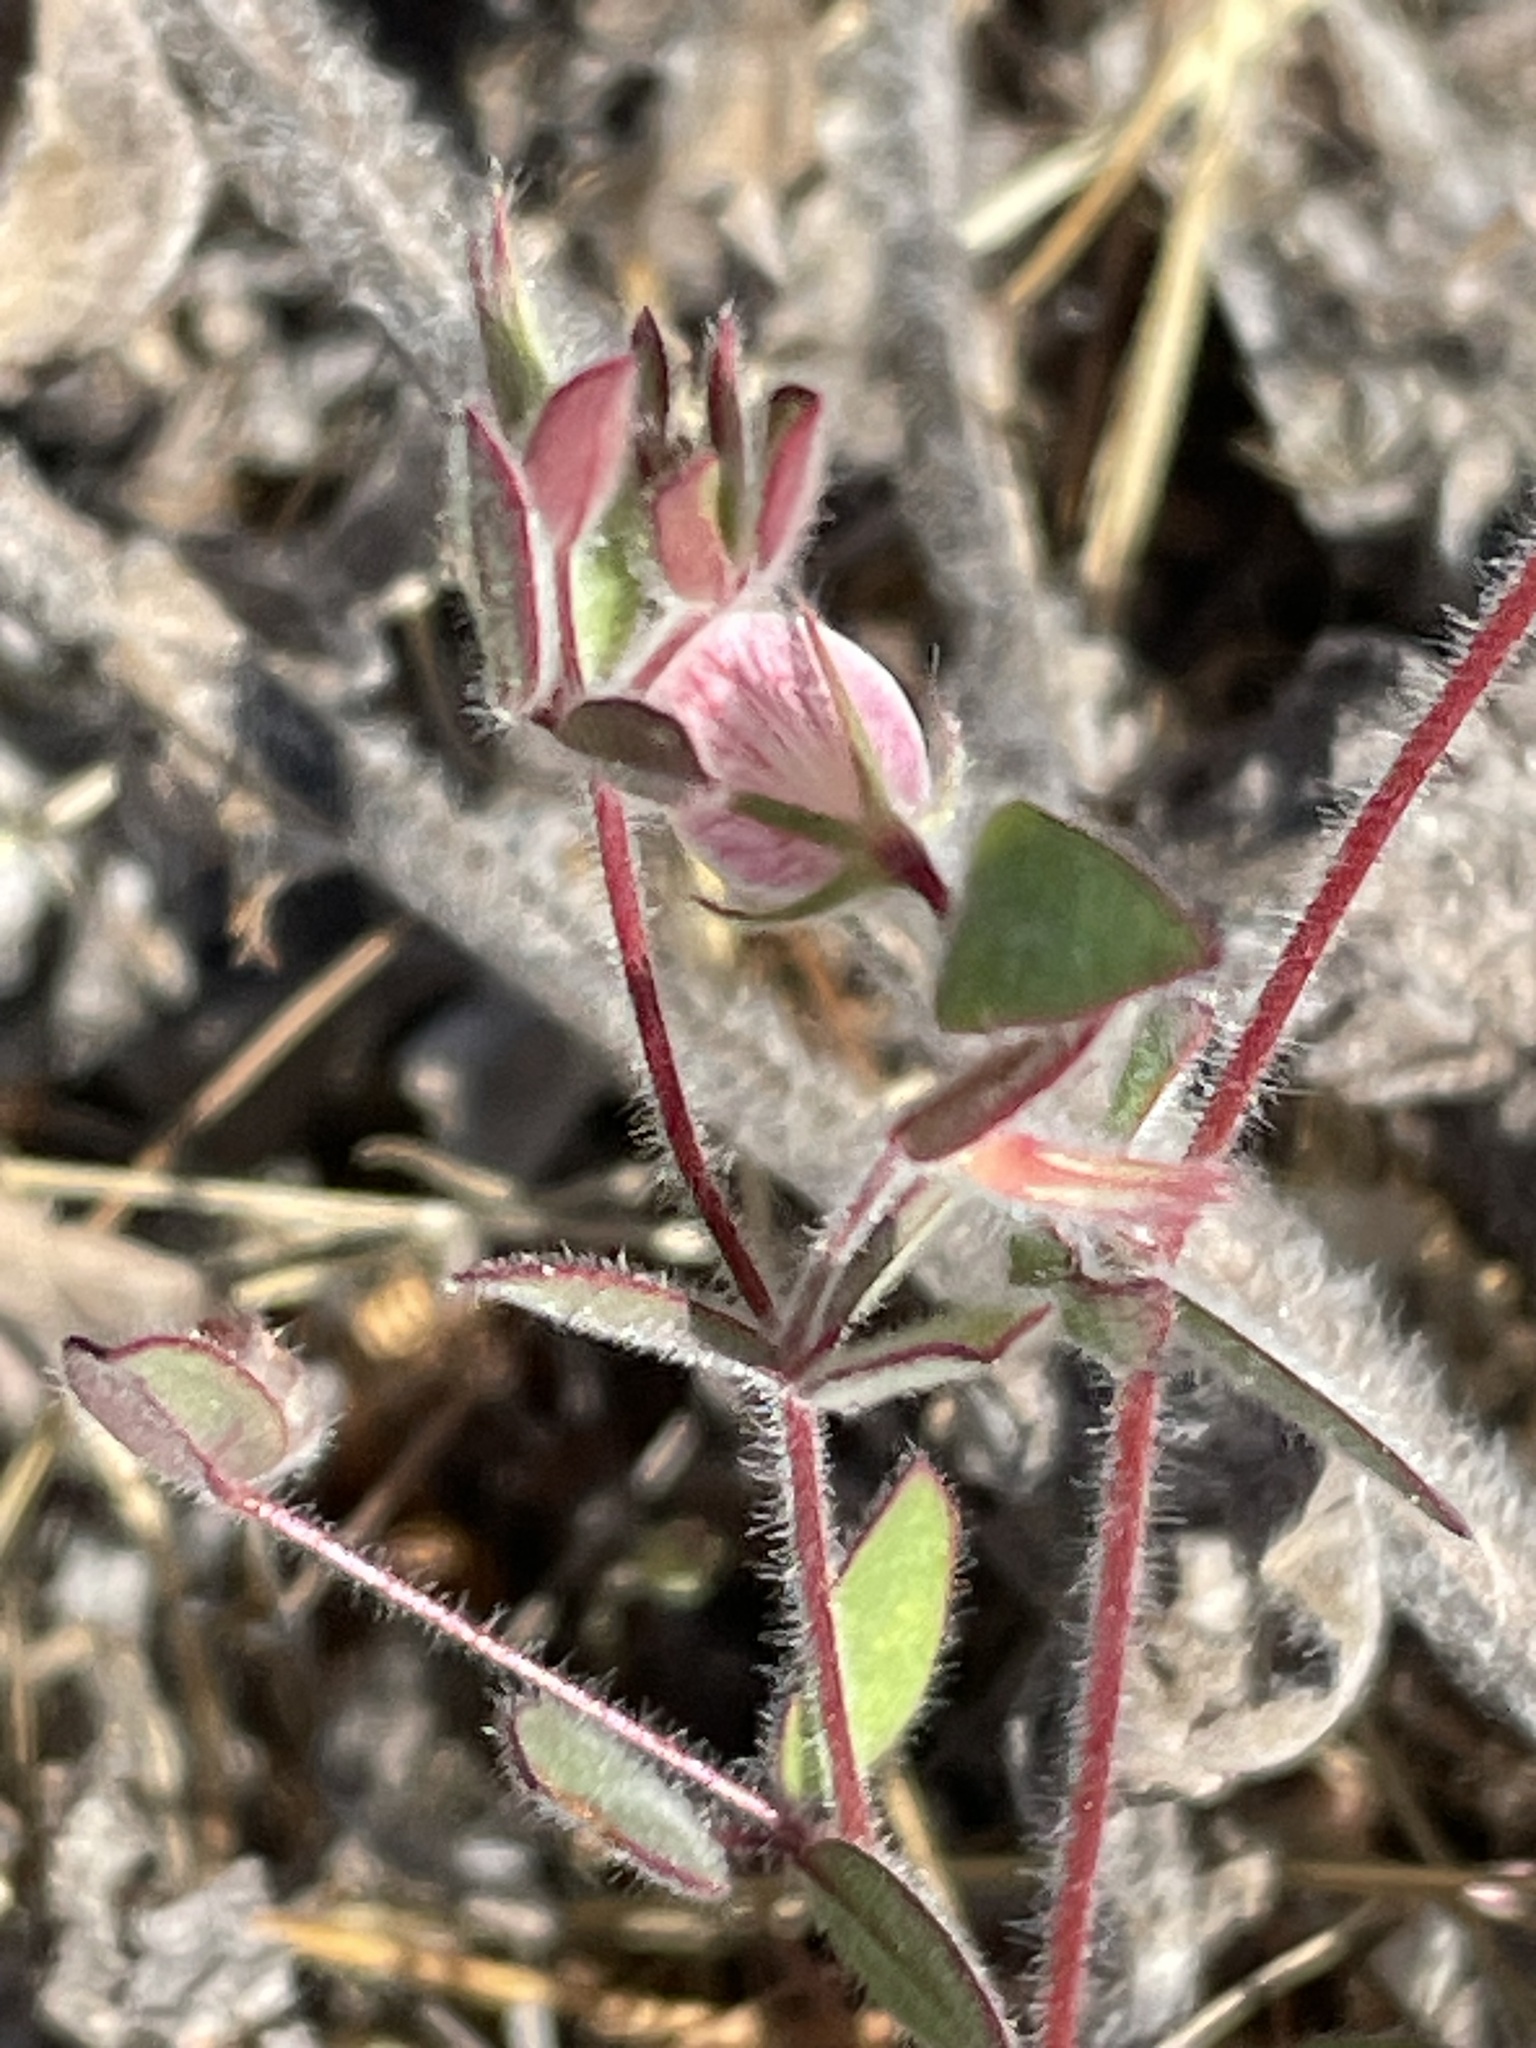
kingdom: Plantae
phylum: Tracheophyta
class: Magnoliopsida
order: Fabales
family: Fabaceae
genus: Acmispon
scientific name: Acmispon americanus
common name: American bird's-foot trefoil
